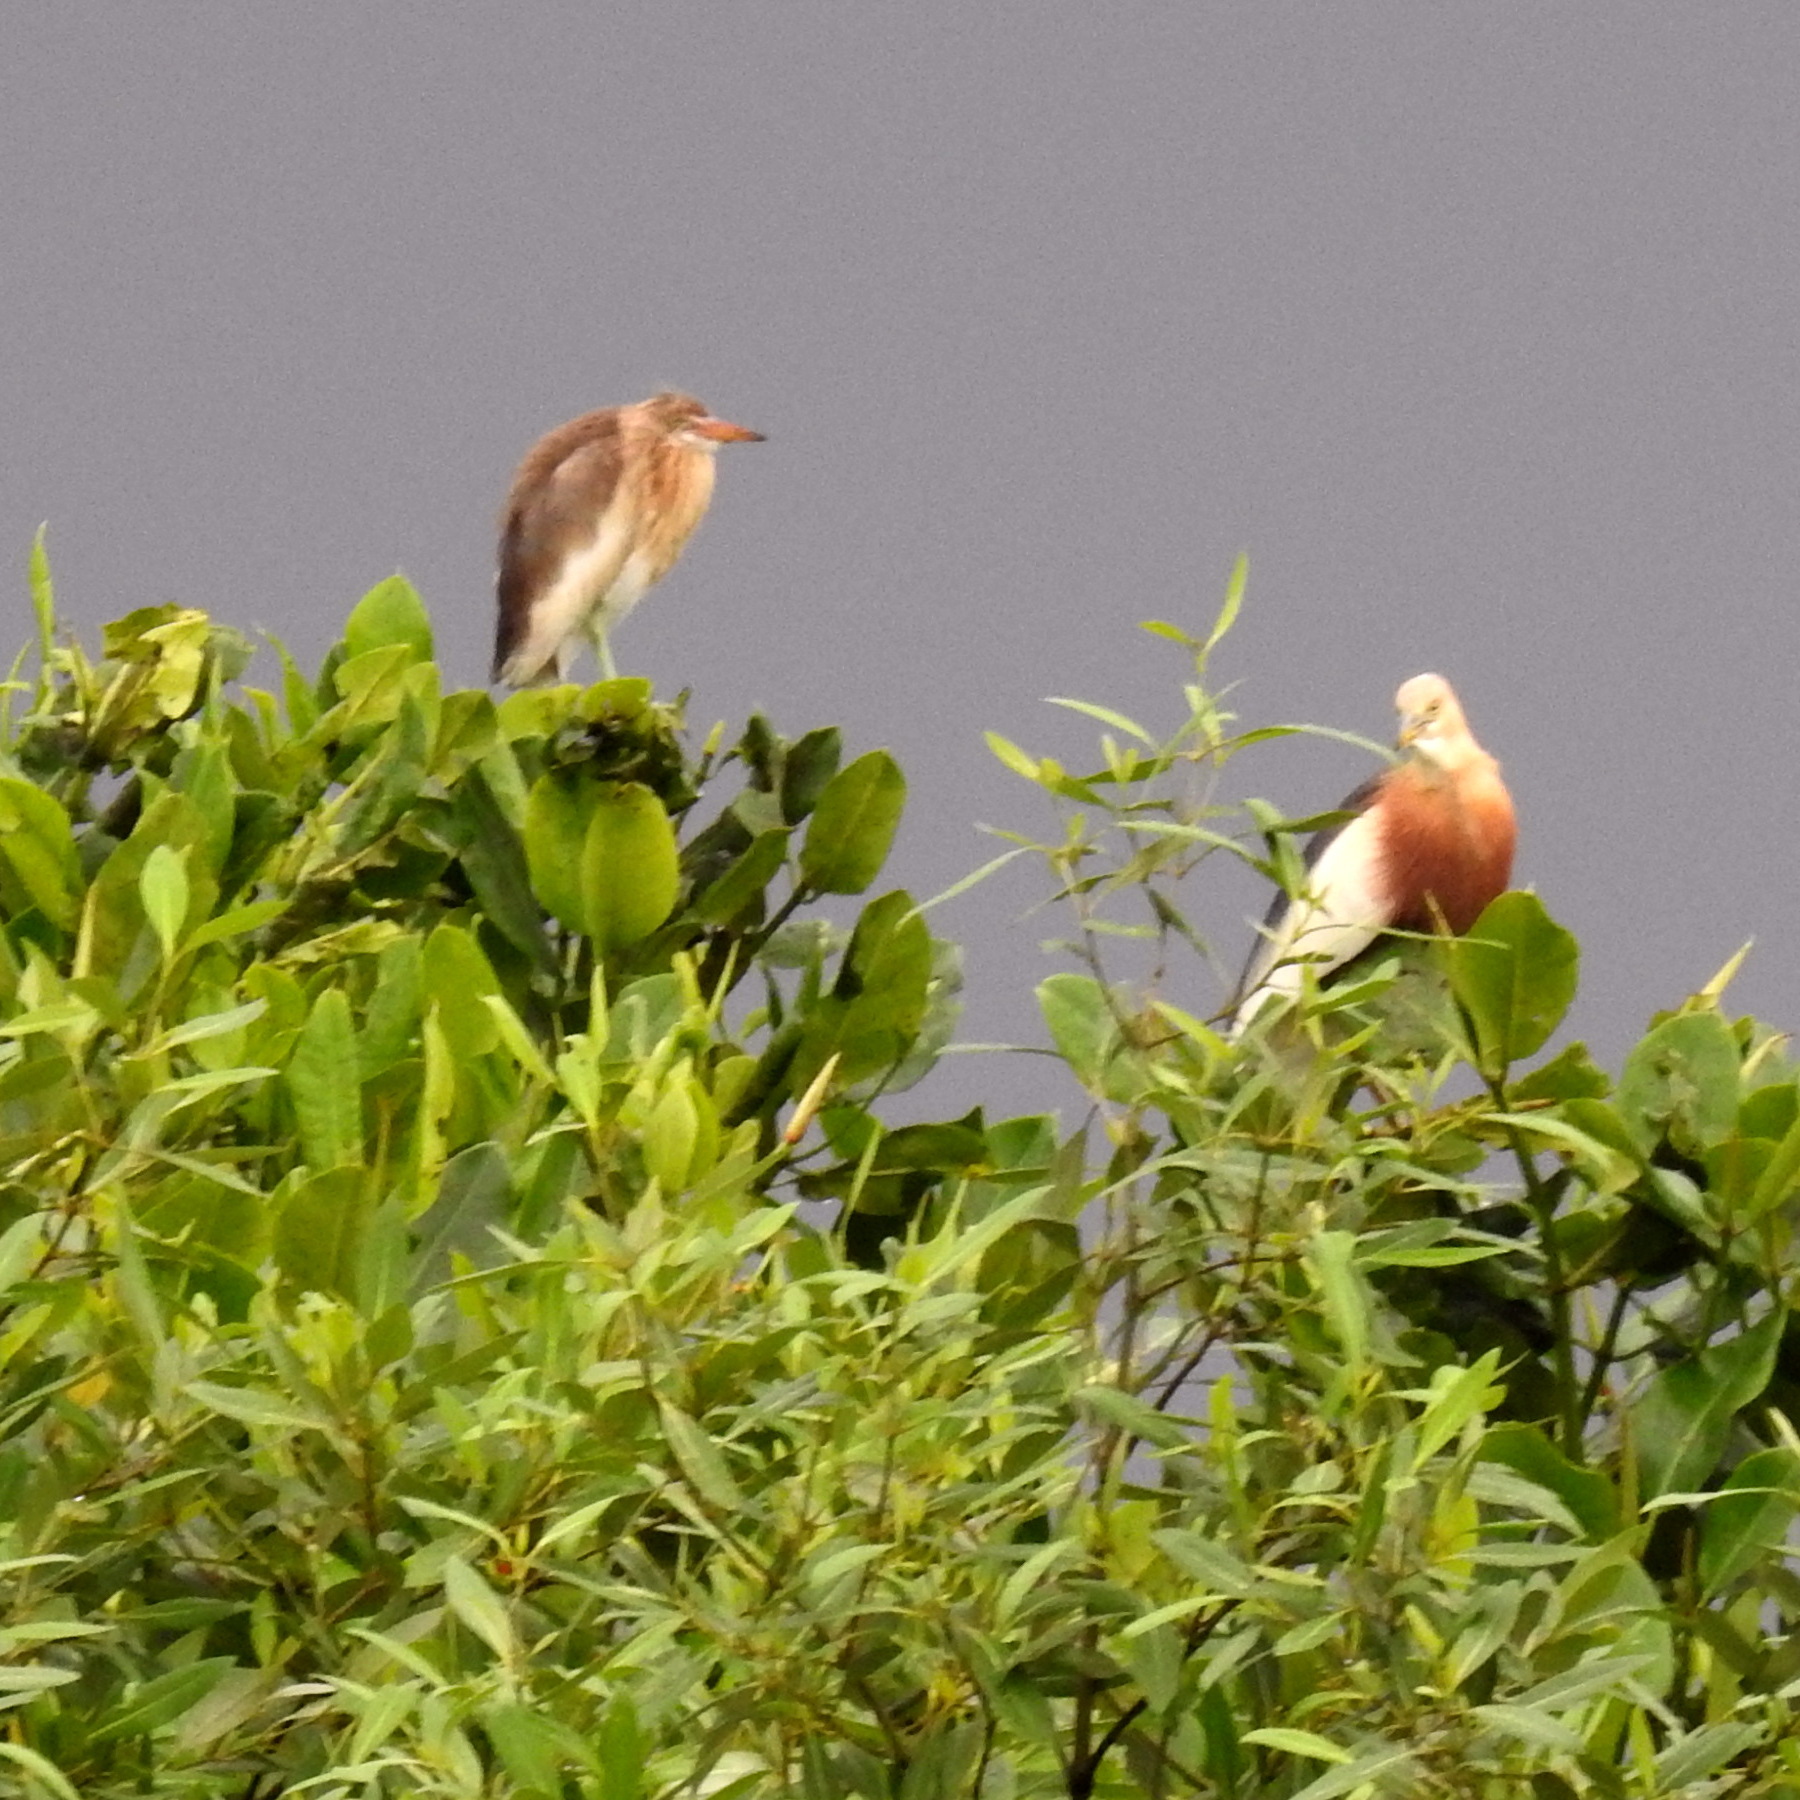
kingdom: Animalia
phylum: Chordata
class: Aves
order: Pelecaniformes
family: Ardeidae
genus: Ardeola
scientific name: Ardeola speciosa
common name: Javan pond heron
